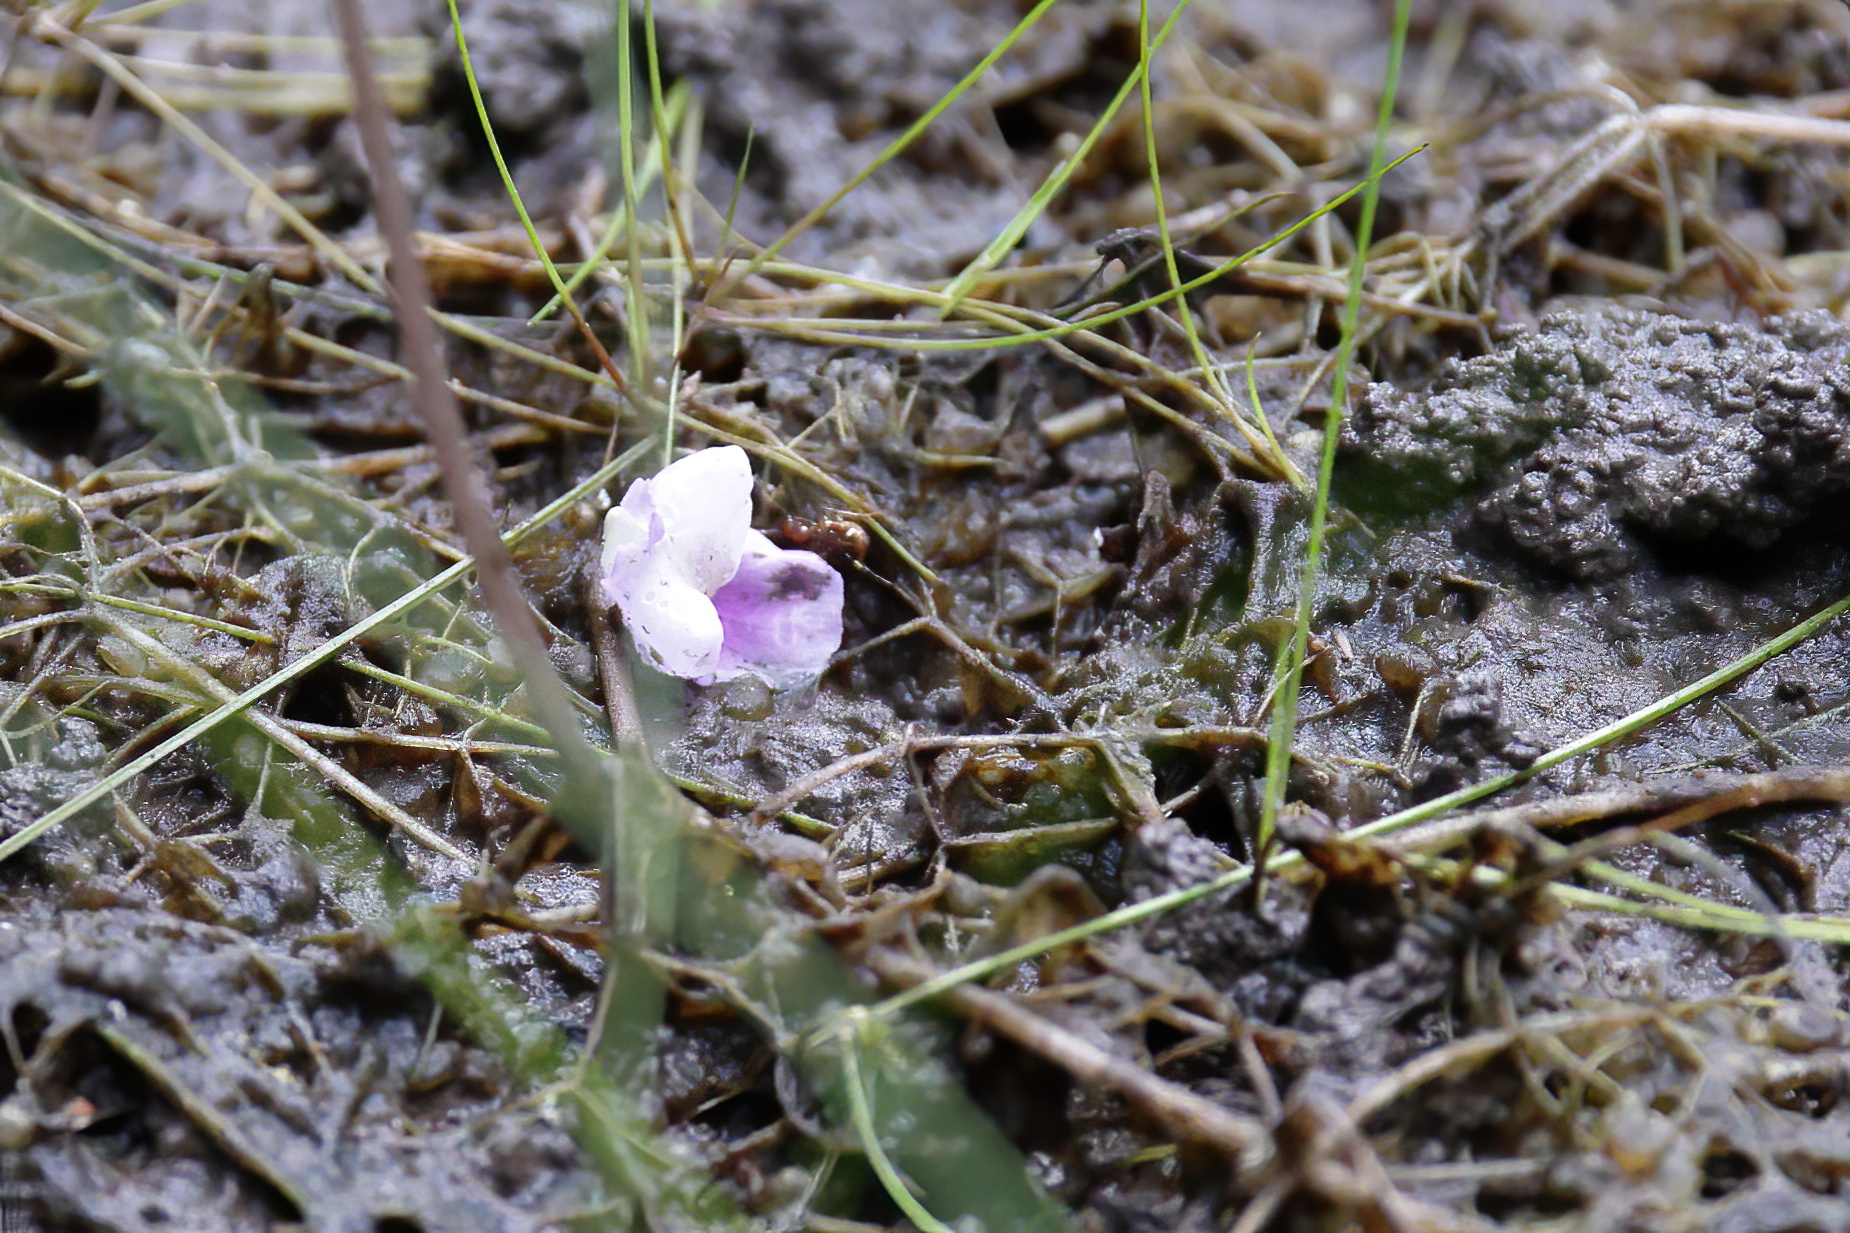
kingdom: Plantae
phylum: Tracheophyta
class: Magnoliopsida
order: Lamiales
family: Lentibulariaceae
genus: Utricularia
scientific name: Utricularia purpurea
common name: Eastern purple bladderwort
